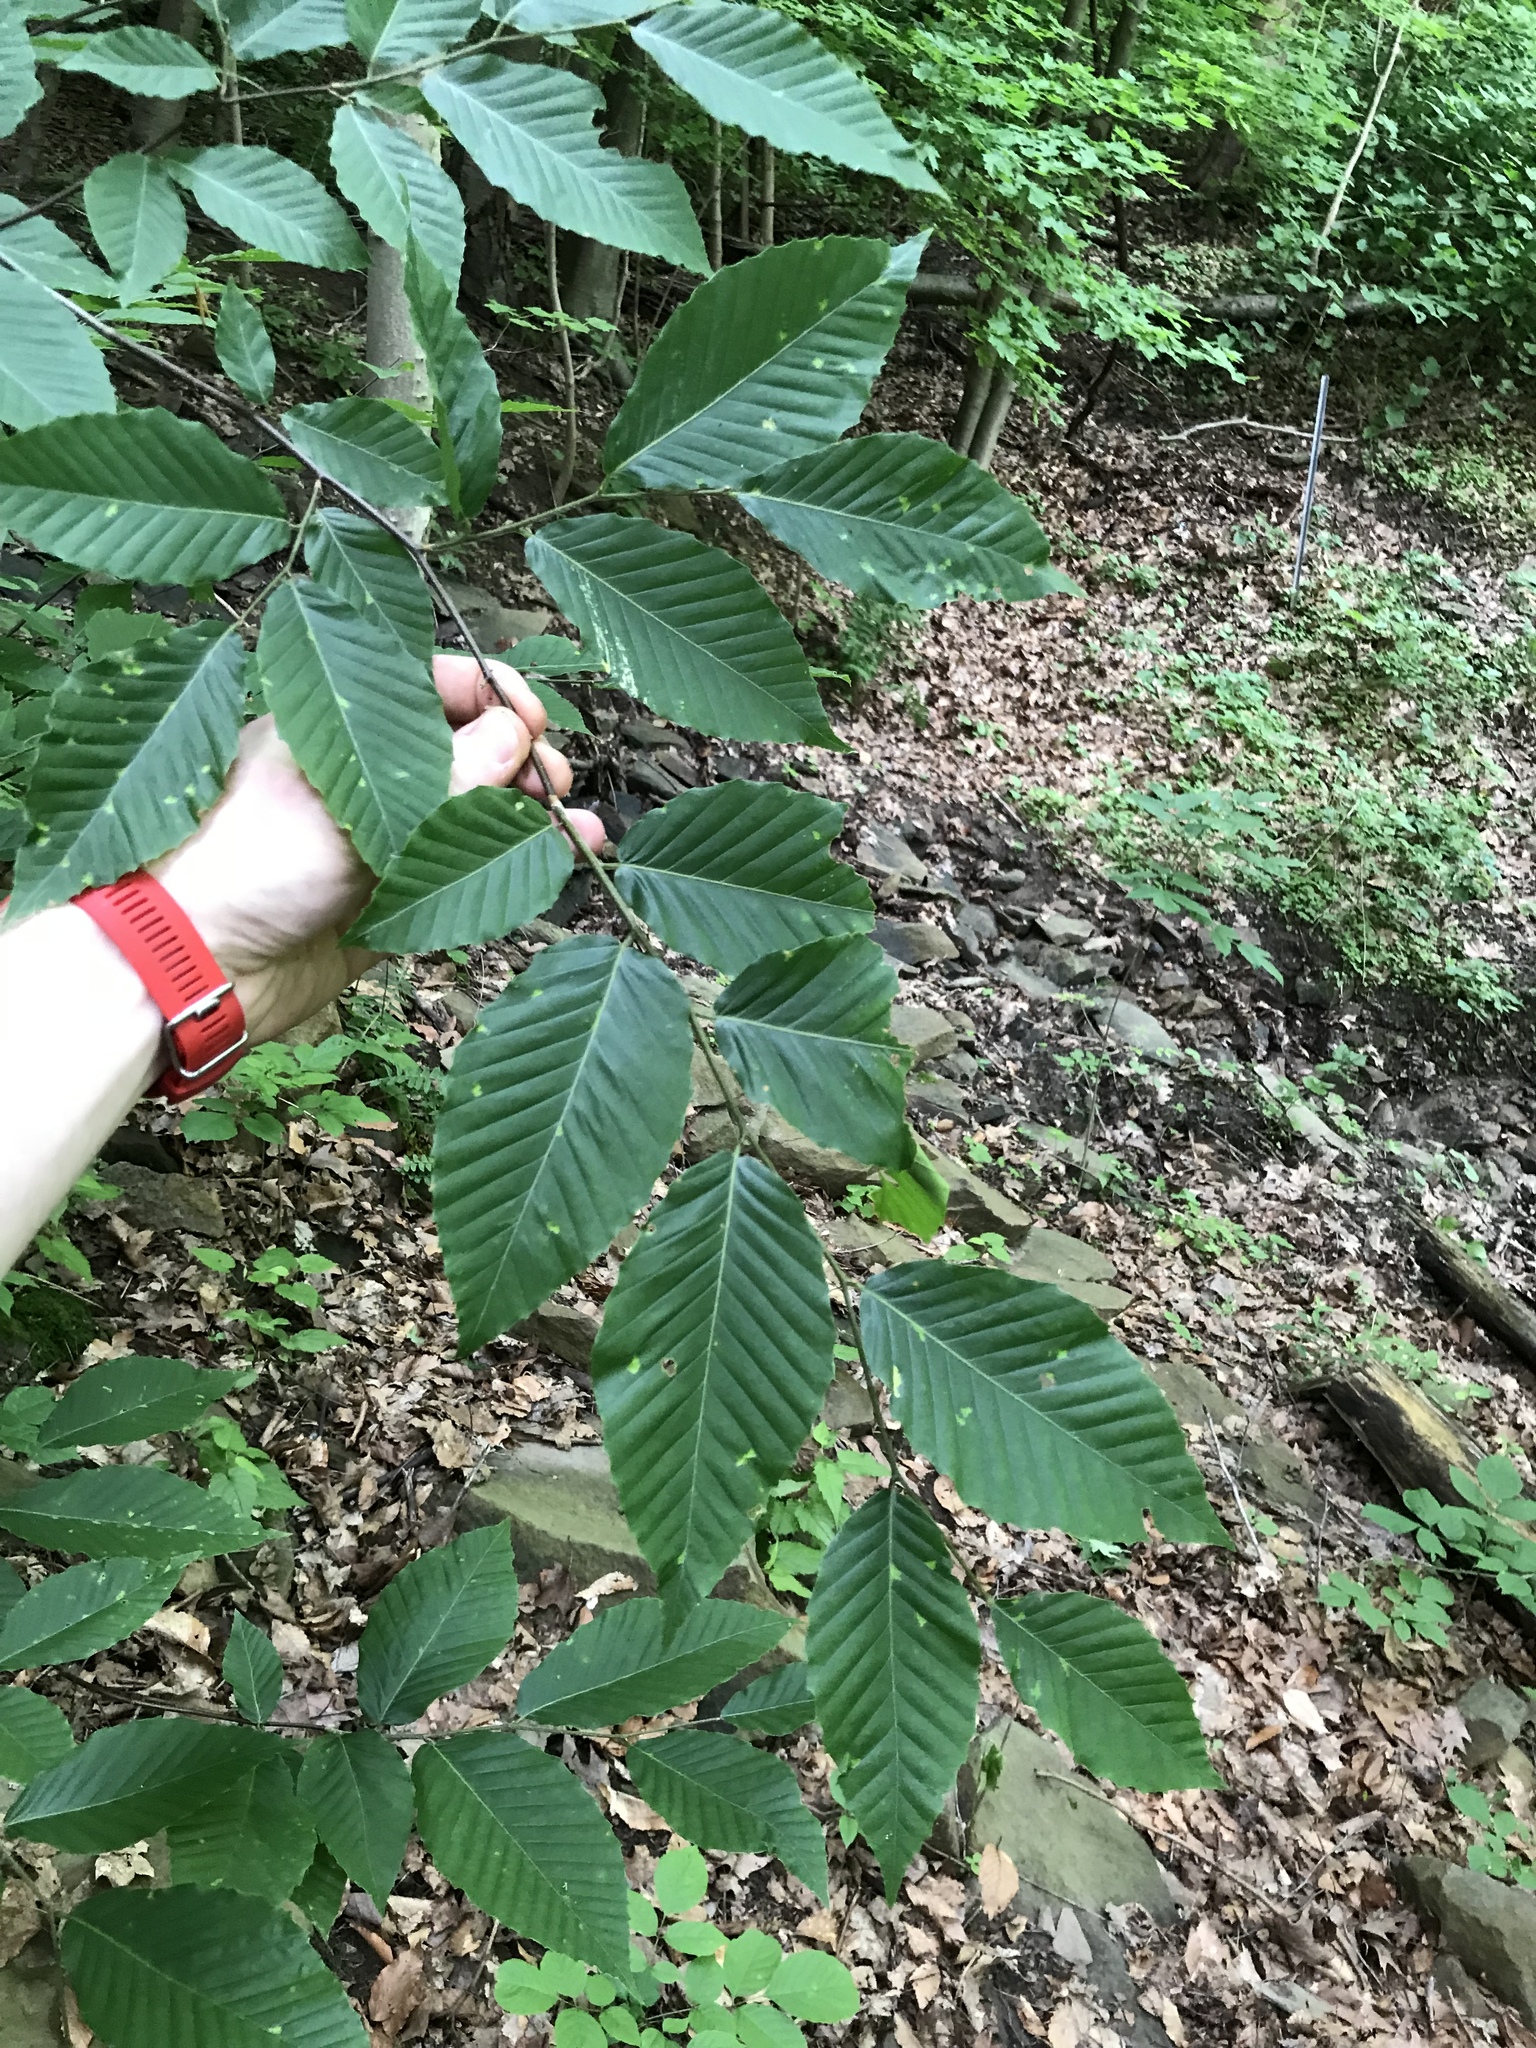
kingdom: Plantae
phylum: Tracheophyta
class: Magnoliopsida
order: Fagales
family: Fagaceae
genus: Fagus
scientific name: Fagus grandifolia
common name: American beech
